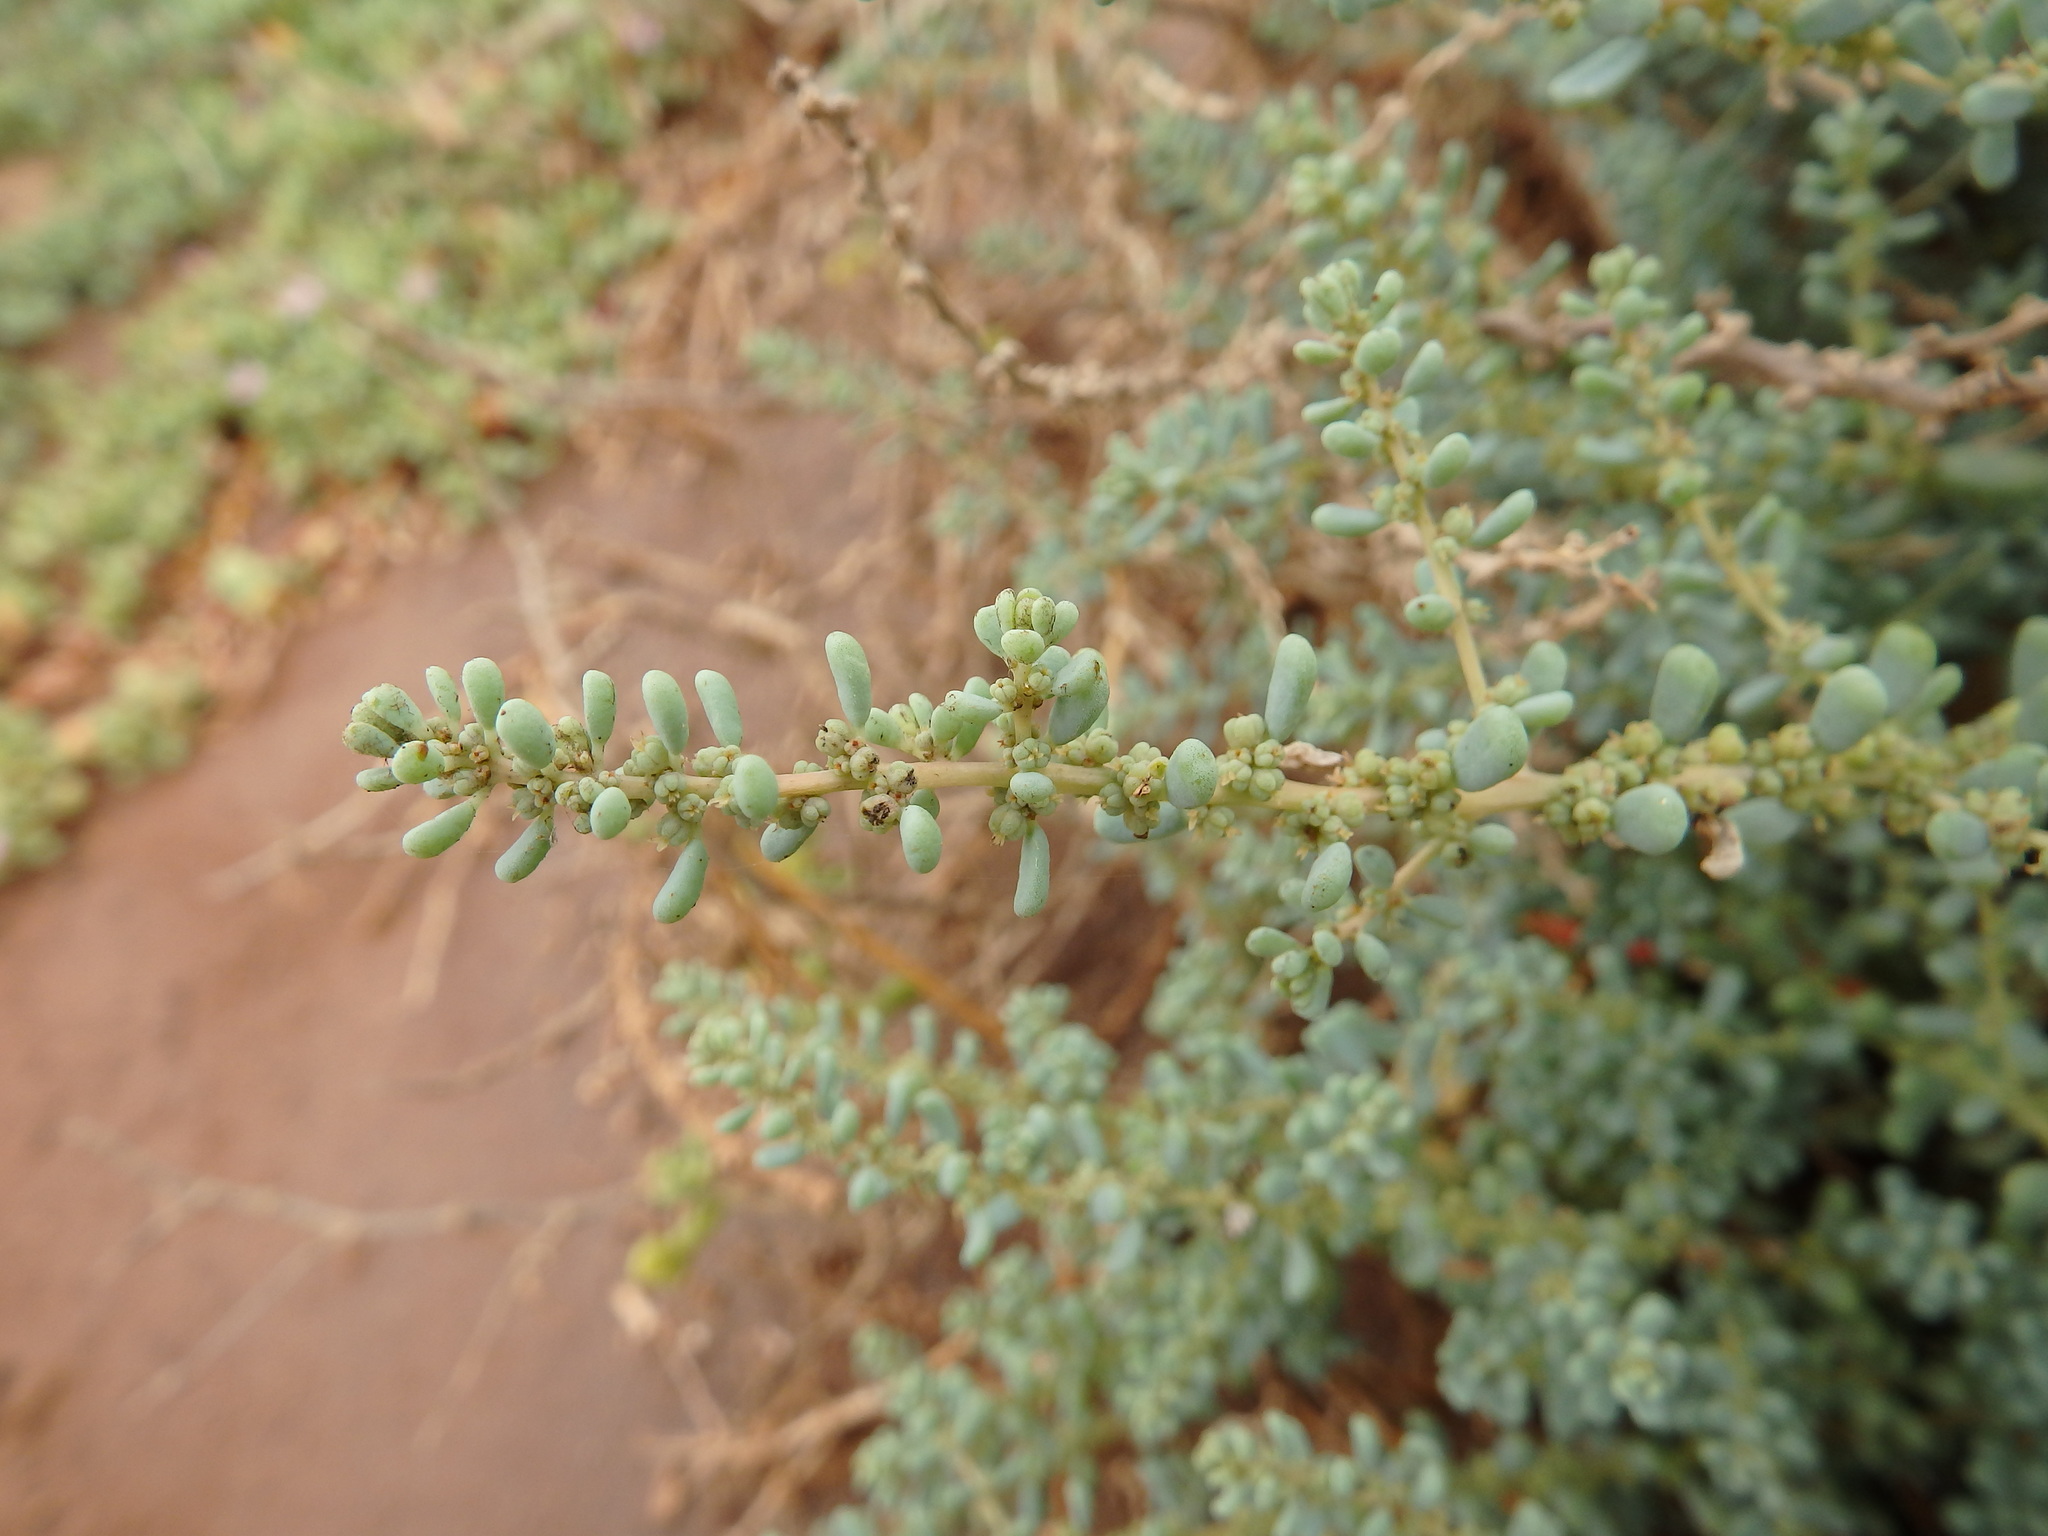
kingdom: Plantae
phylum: Tracheophyta
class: Magnoliopsida
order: Caryophyllales
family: Amaranthaceae
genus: Suaeda
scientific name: Suaeda vermiculata
